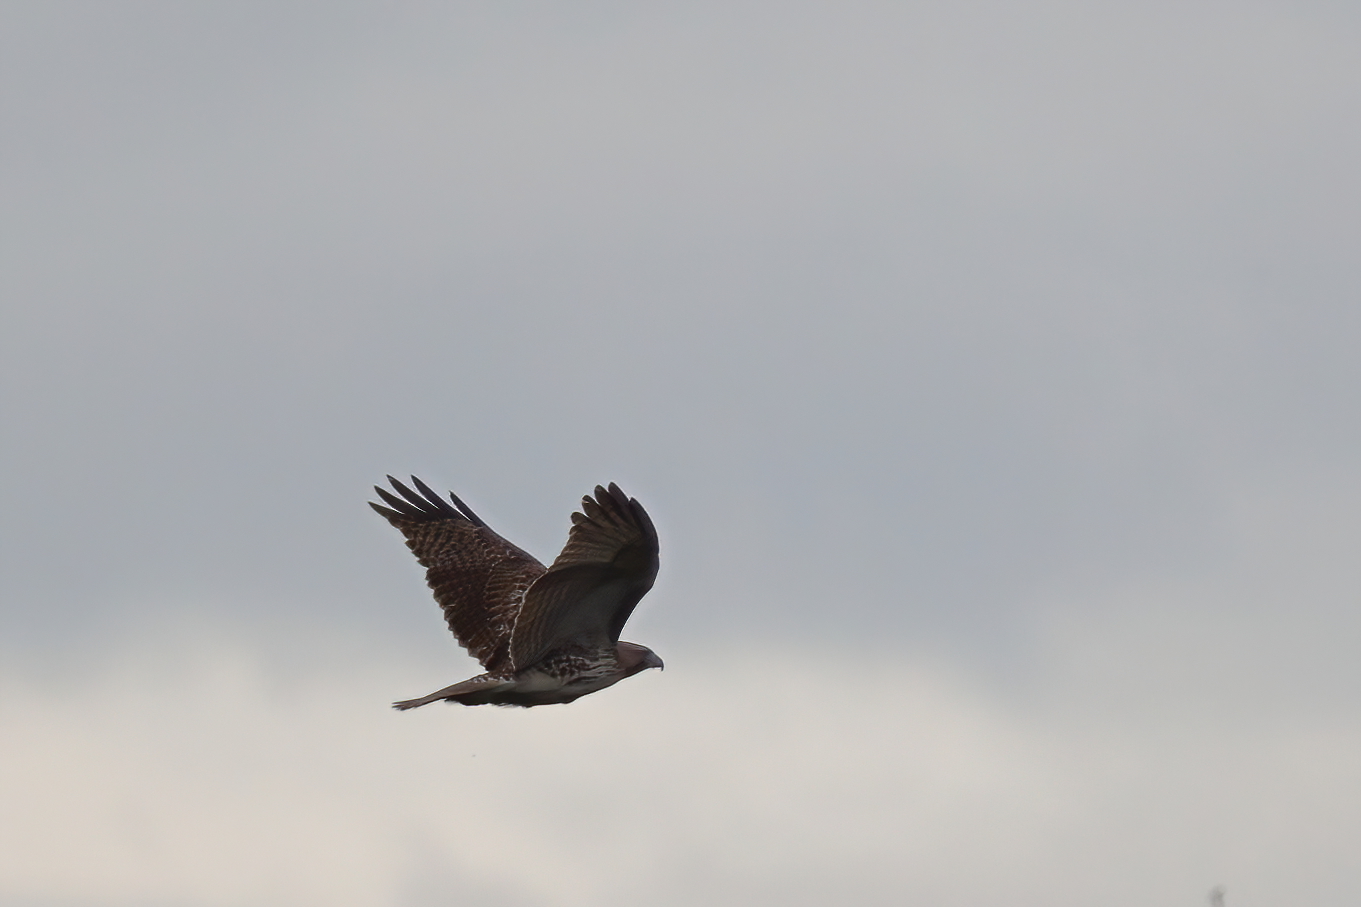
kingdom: Animalia
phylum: Chordata
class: Aves
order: Accipitriformes
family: Accipitridae
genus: Buteo
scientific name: Buteo jamaicensis
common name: Red-tailed hawk
